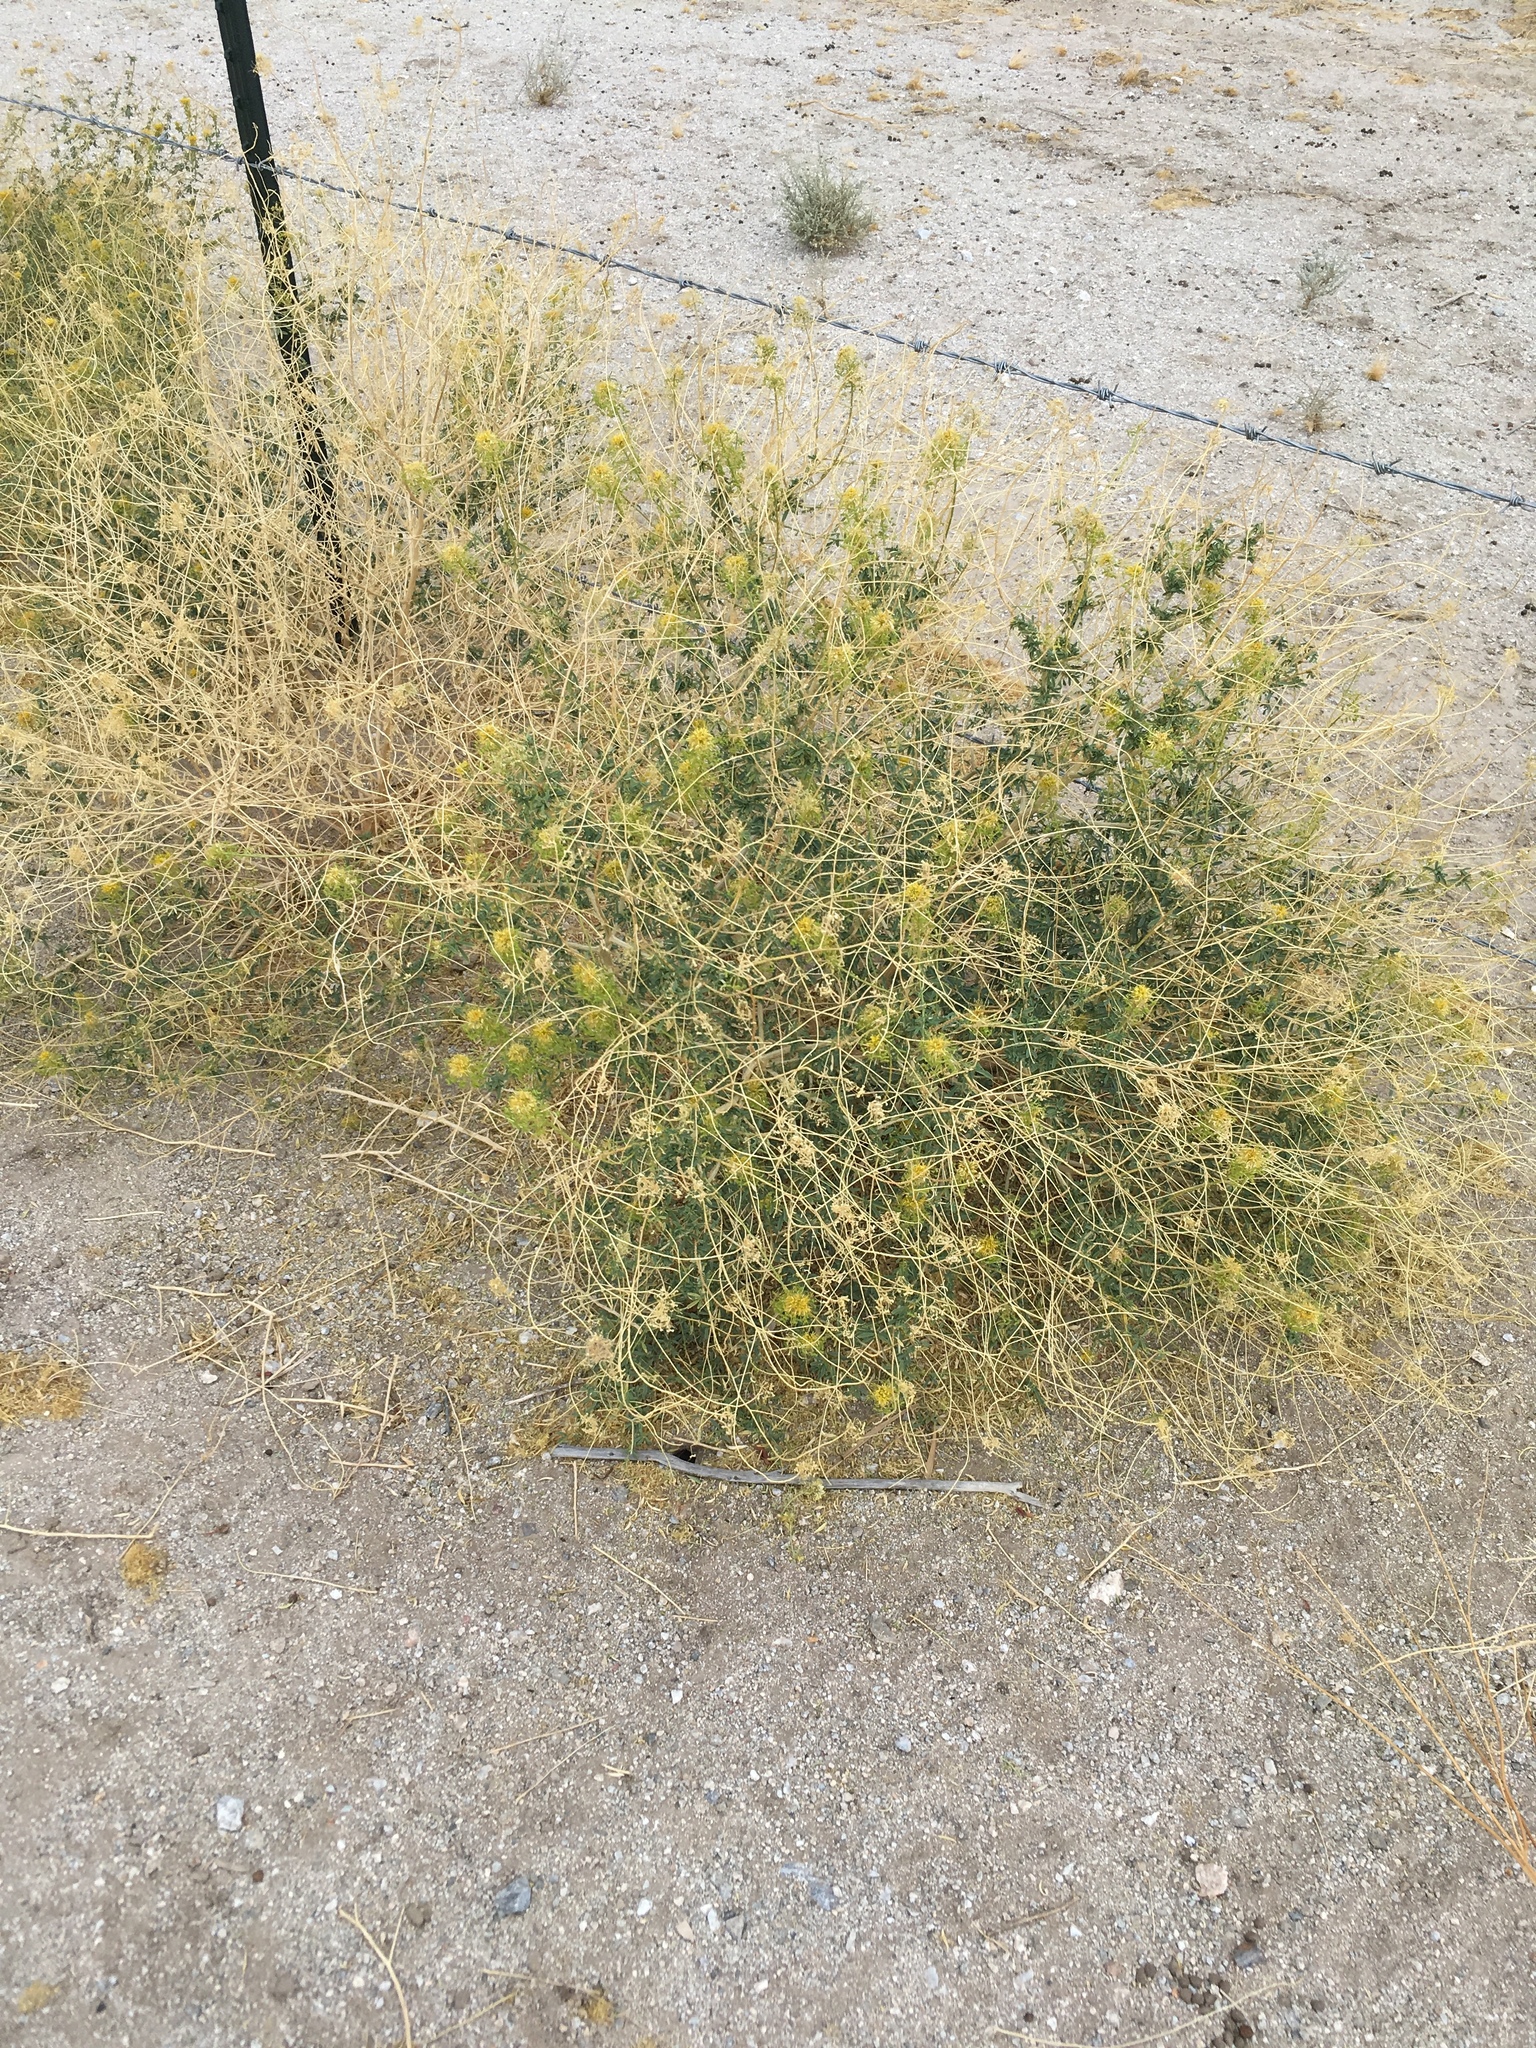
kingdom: Plantae
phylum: Tracheophyta
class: Magnoliopsida
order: Brassicales
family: Cleomaceae
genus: Cleomella
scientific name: Cleomella palmeri
